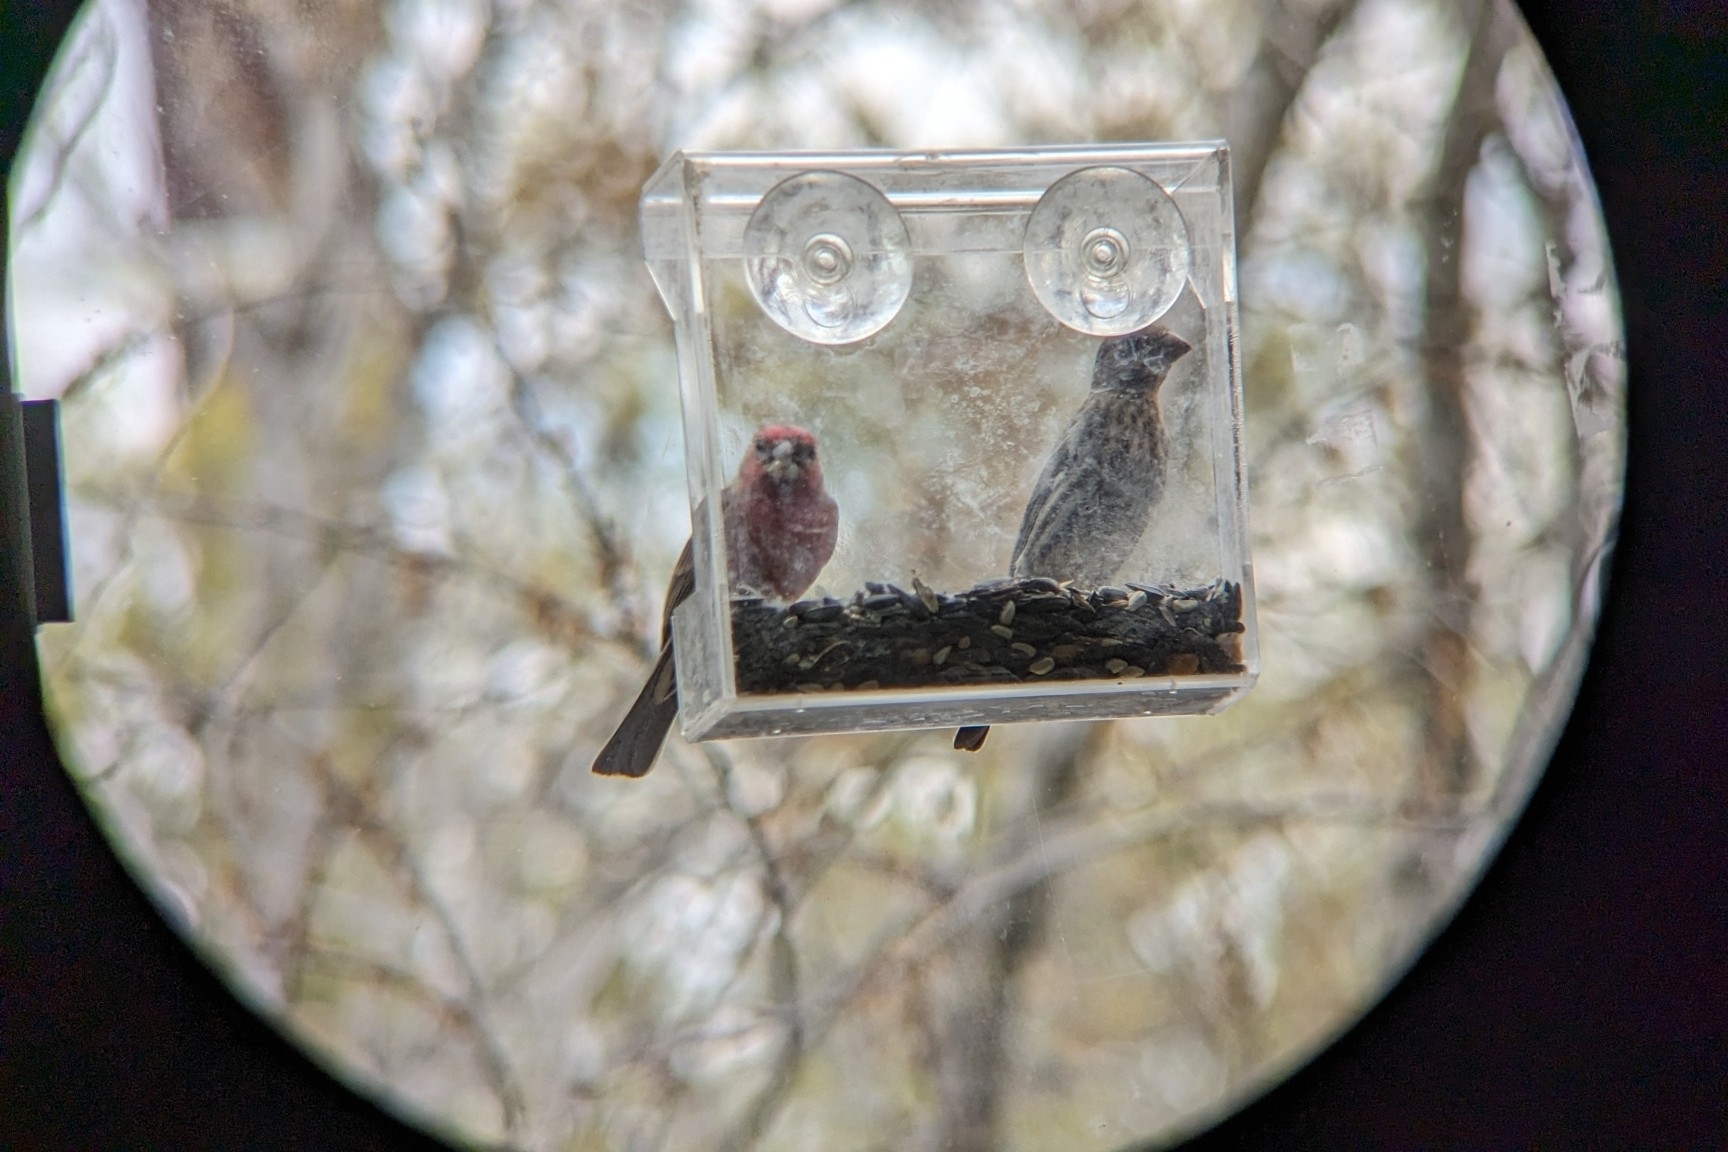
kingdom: Animalia
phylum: Chordata
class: Aves
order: Passeriformes
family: Fringillidae
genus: Haemorhous
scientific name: Haemorhous mexicanus
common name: House finch
